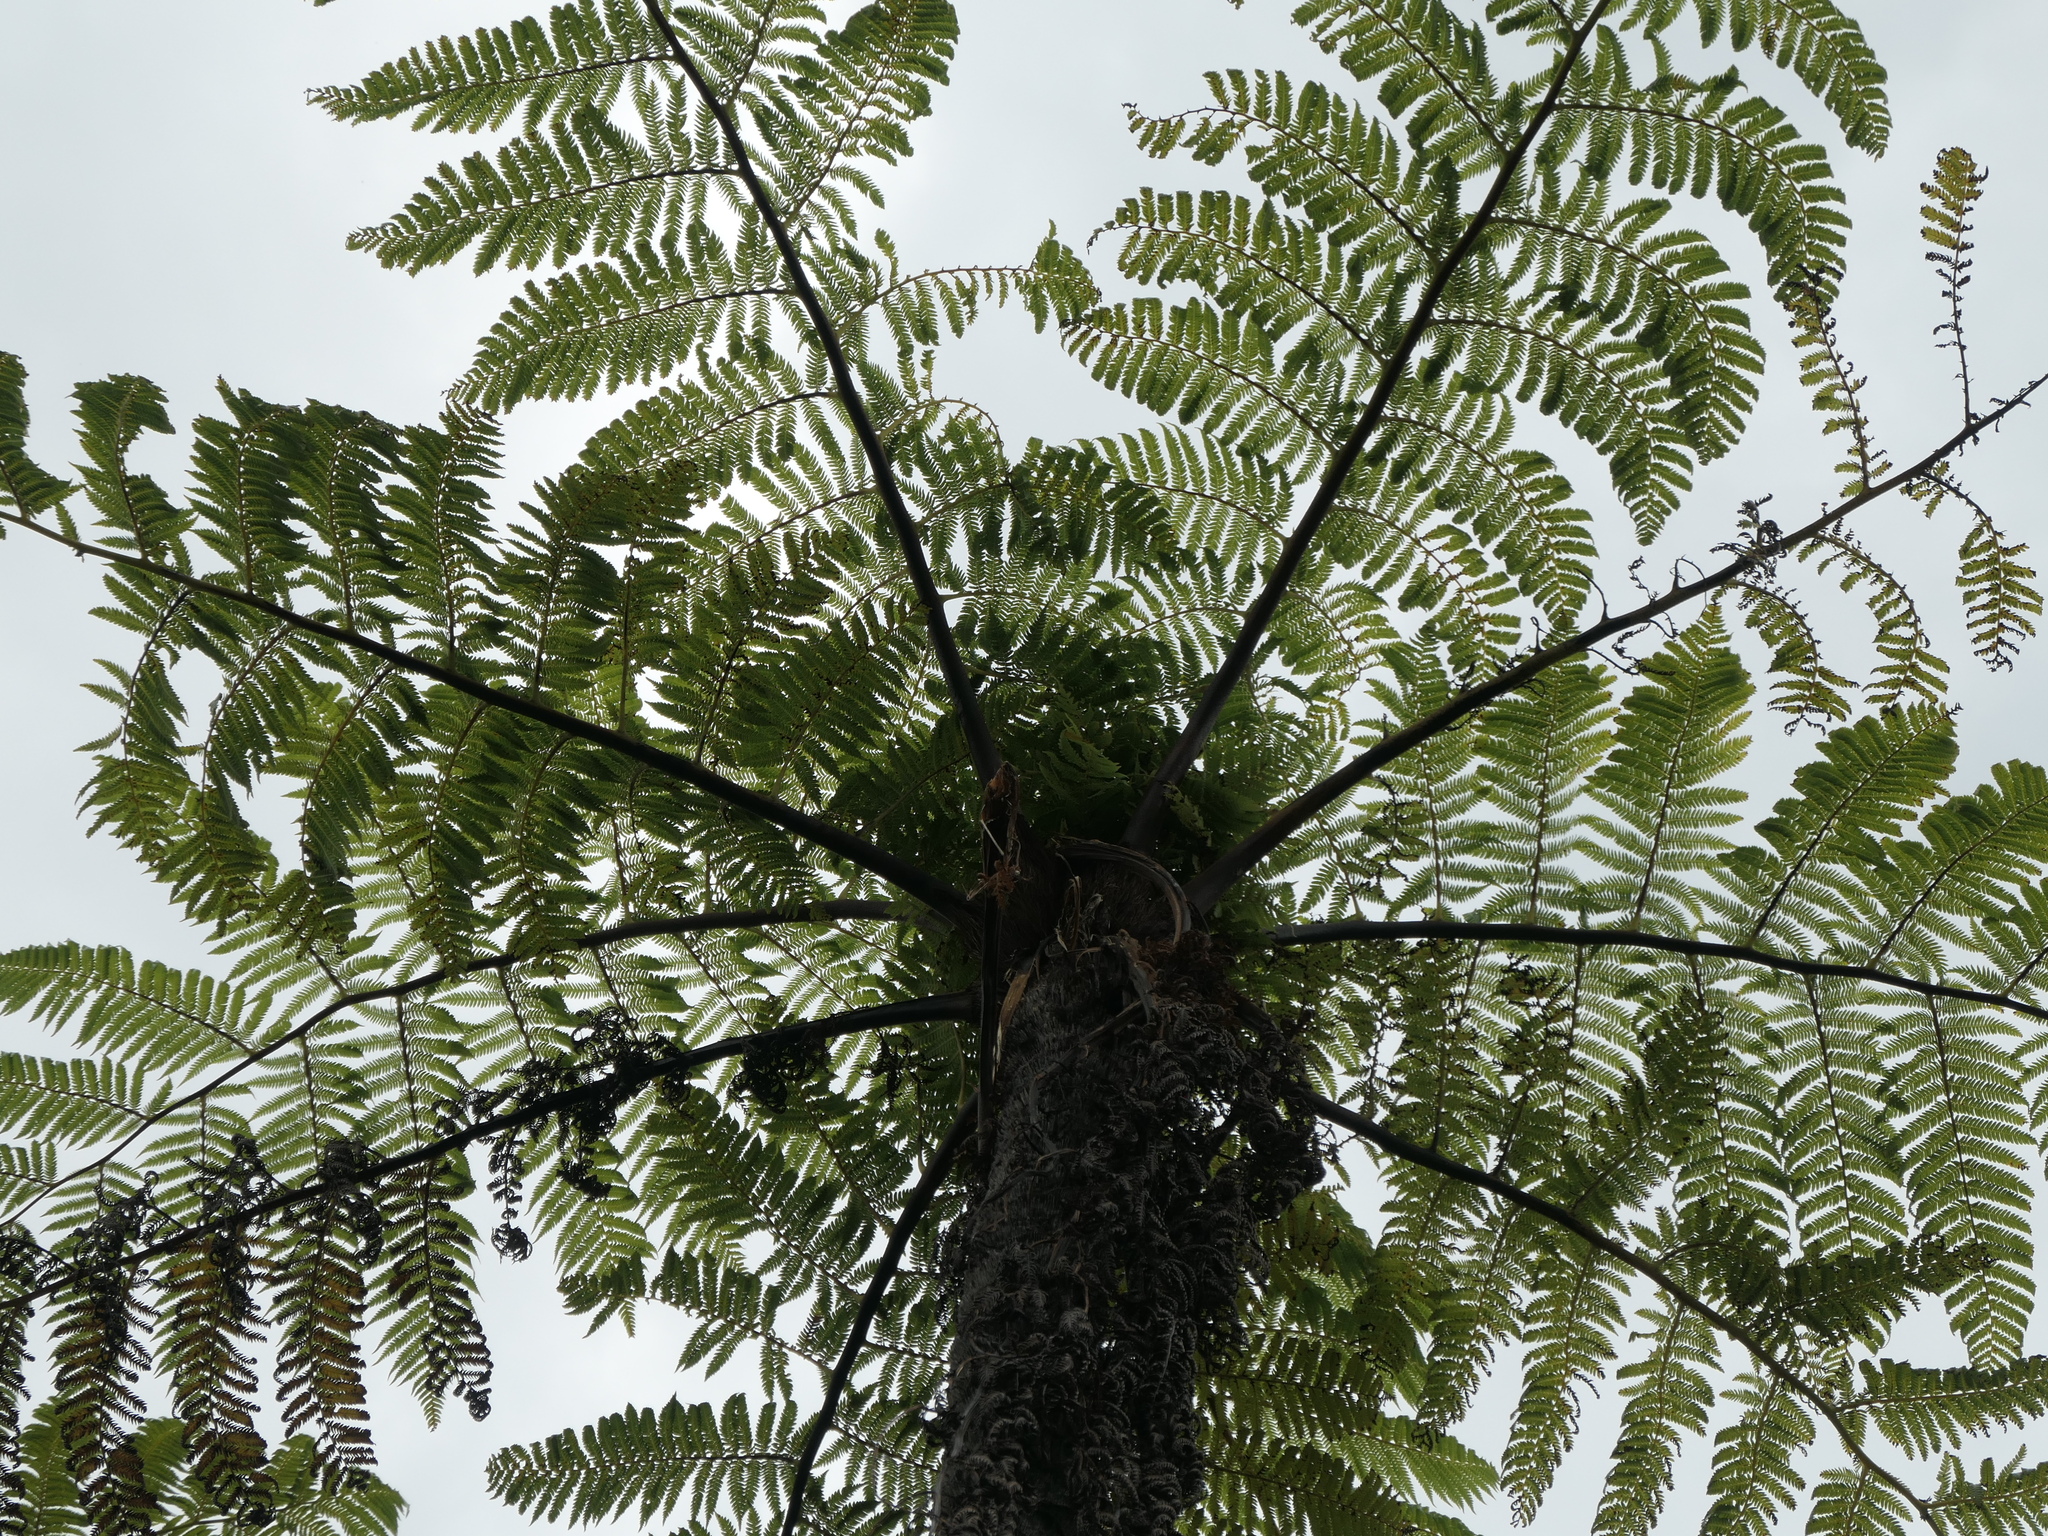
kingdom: Plantae
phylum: Tracheophyta
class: Polypodiopsida
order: Cyatheales
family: Cyatheaceae
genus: Cyathea
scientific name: Cyathea cunninghamii
